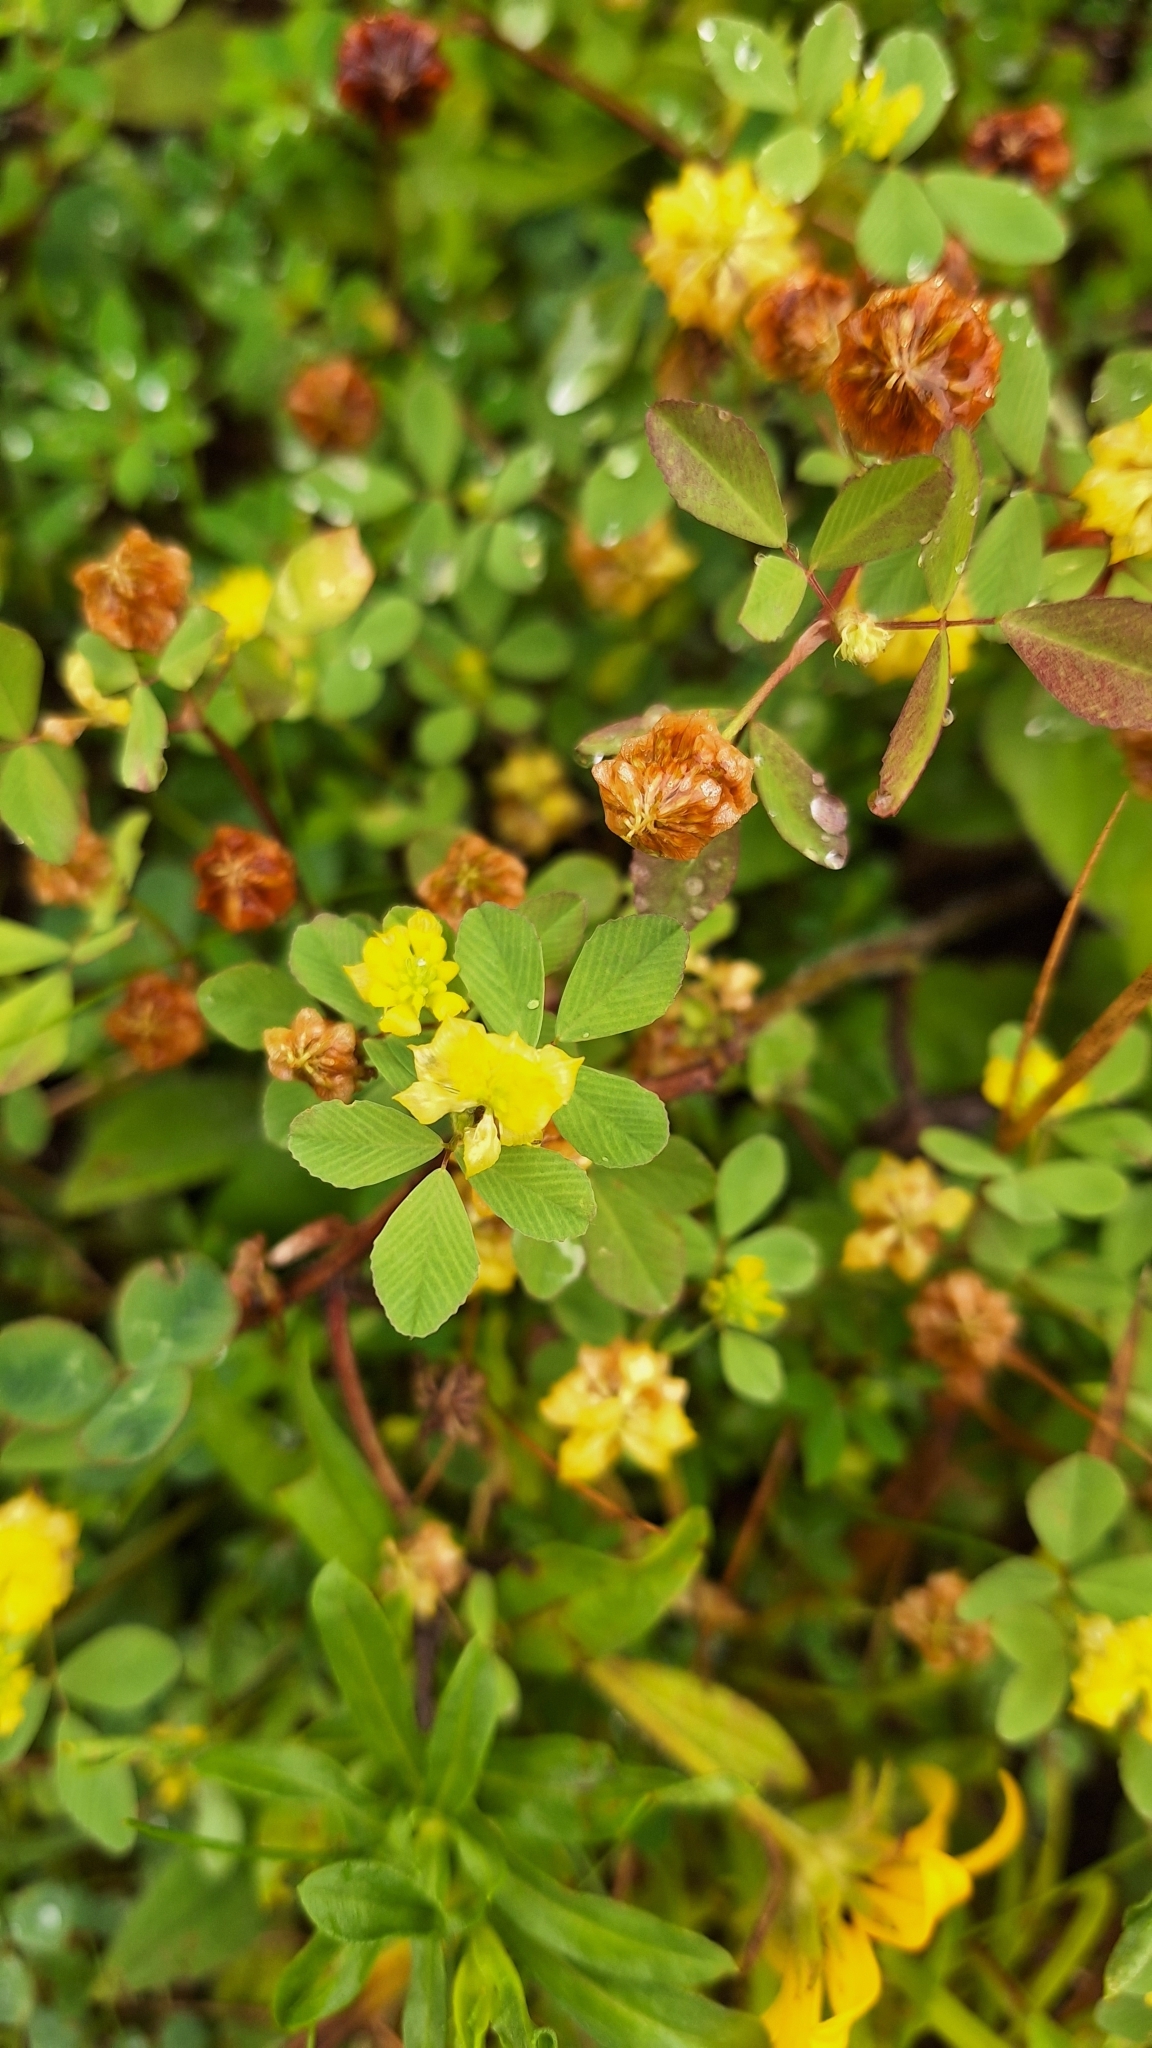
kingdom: Plantae
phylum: Tracheophyta
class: Magnoliopsida
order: Fabales
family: Fabaceae
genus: Trifolium
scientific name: Trifolium campestre
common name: Field clover
